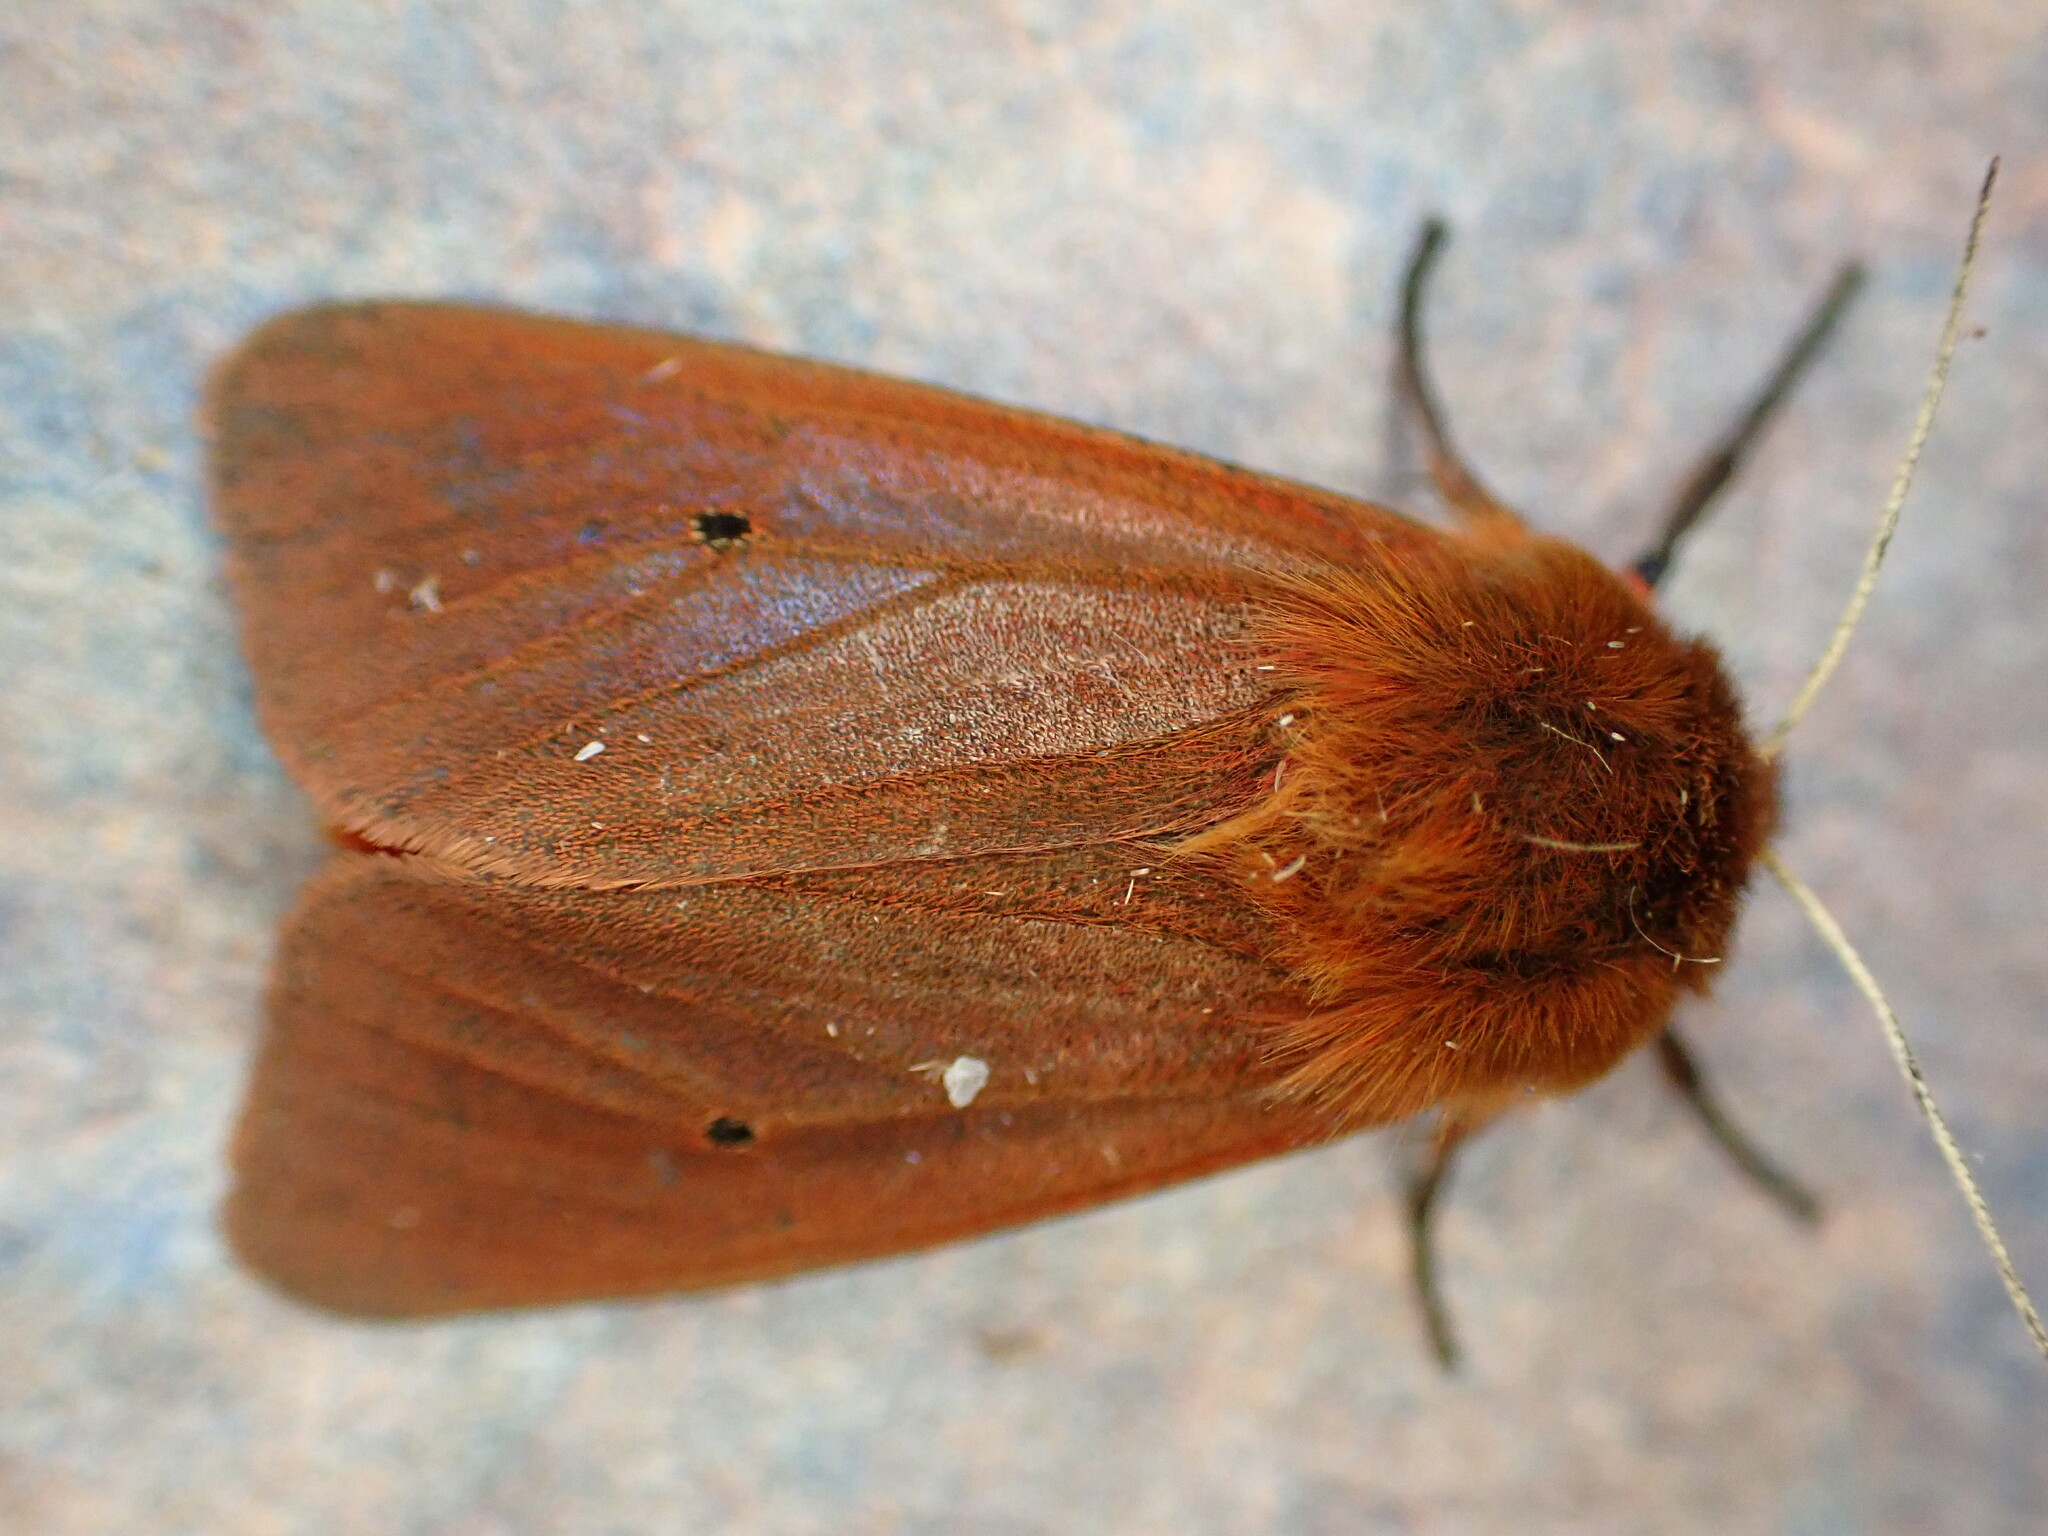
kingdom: Animalia
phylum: Arthropoda
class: Insecta
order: Lepidoptera
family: Erebidae
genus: Phragmatobia
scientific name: Phragmatobia fuliginosa
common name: Ruby tiger
